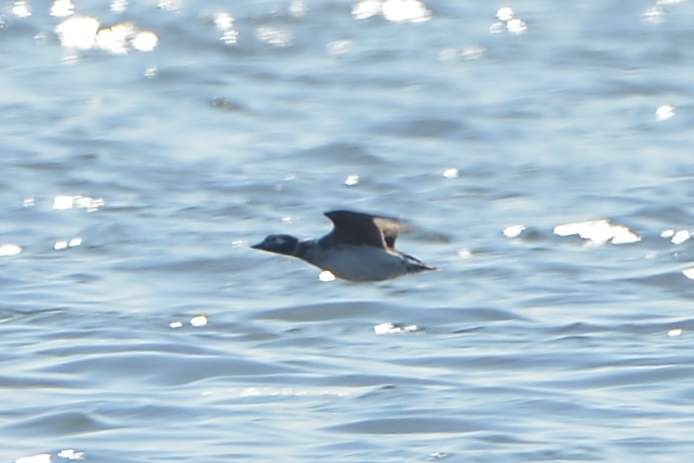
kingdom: Animalia
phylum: Chordata
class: Aves
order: Anseriformes
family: Anatidae
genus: Clangula
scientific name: Clangula hyemalis
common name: Long-tailed duck
